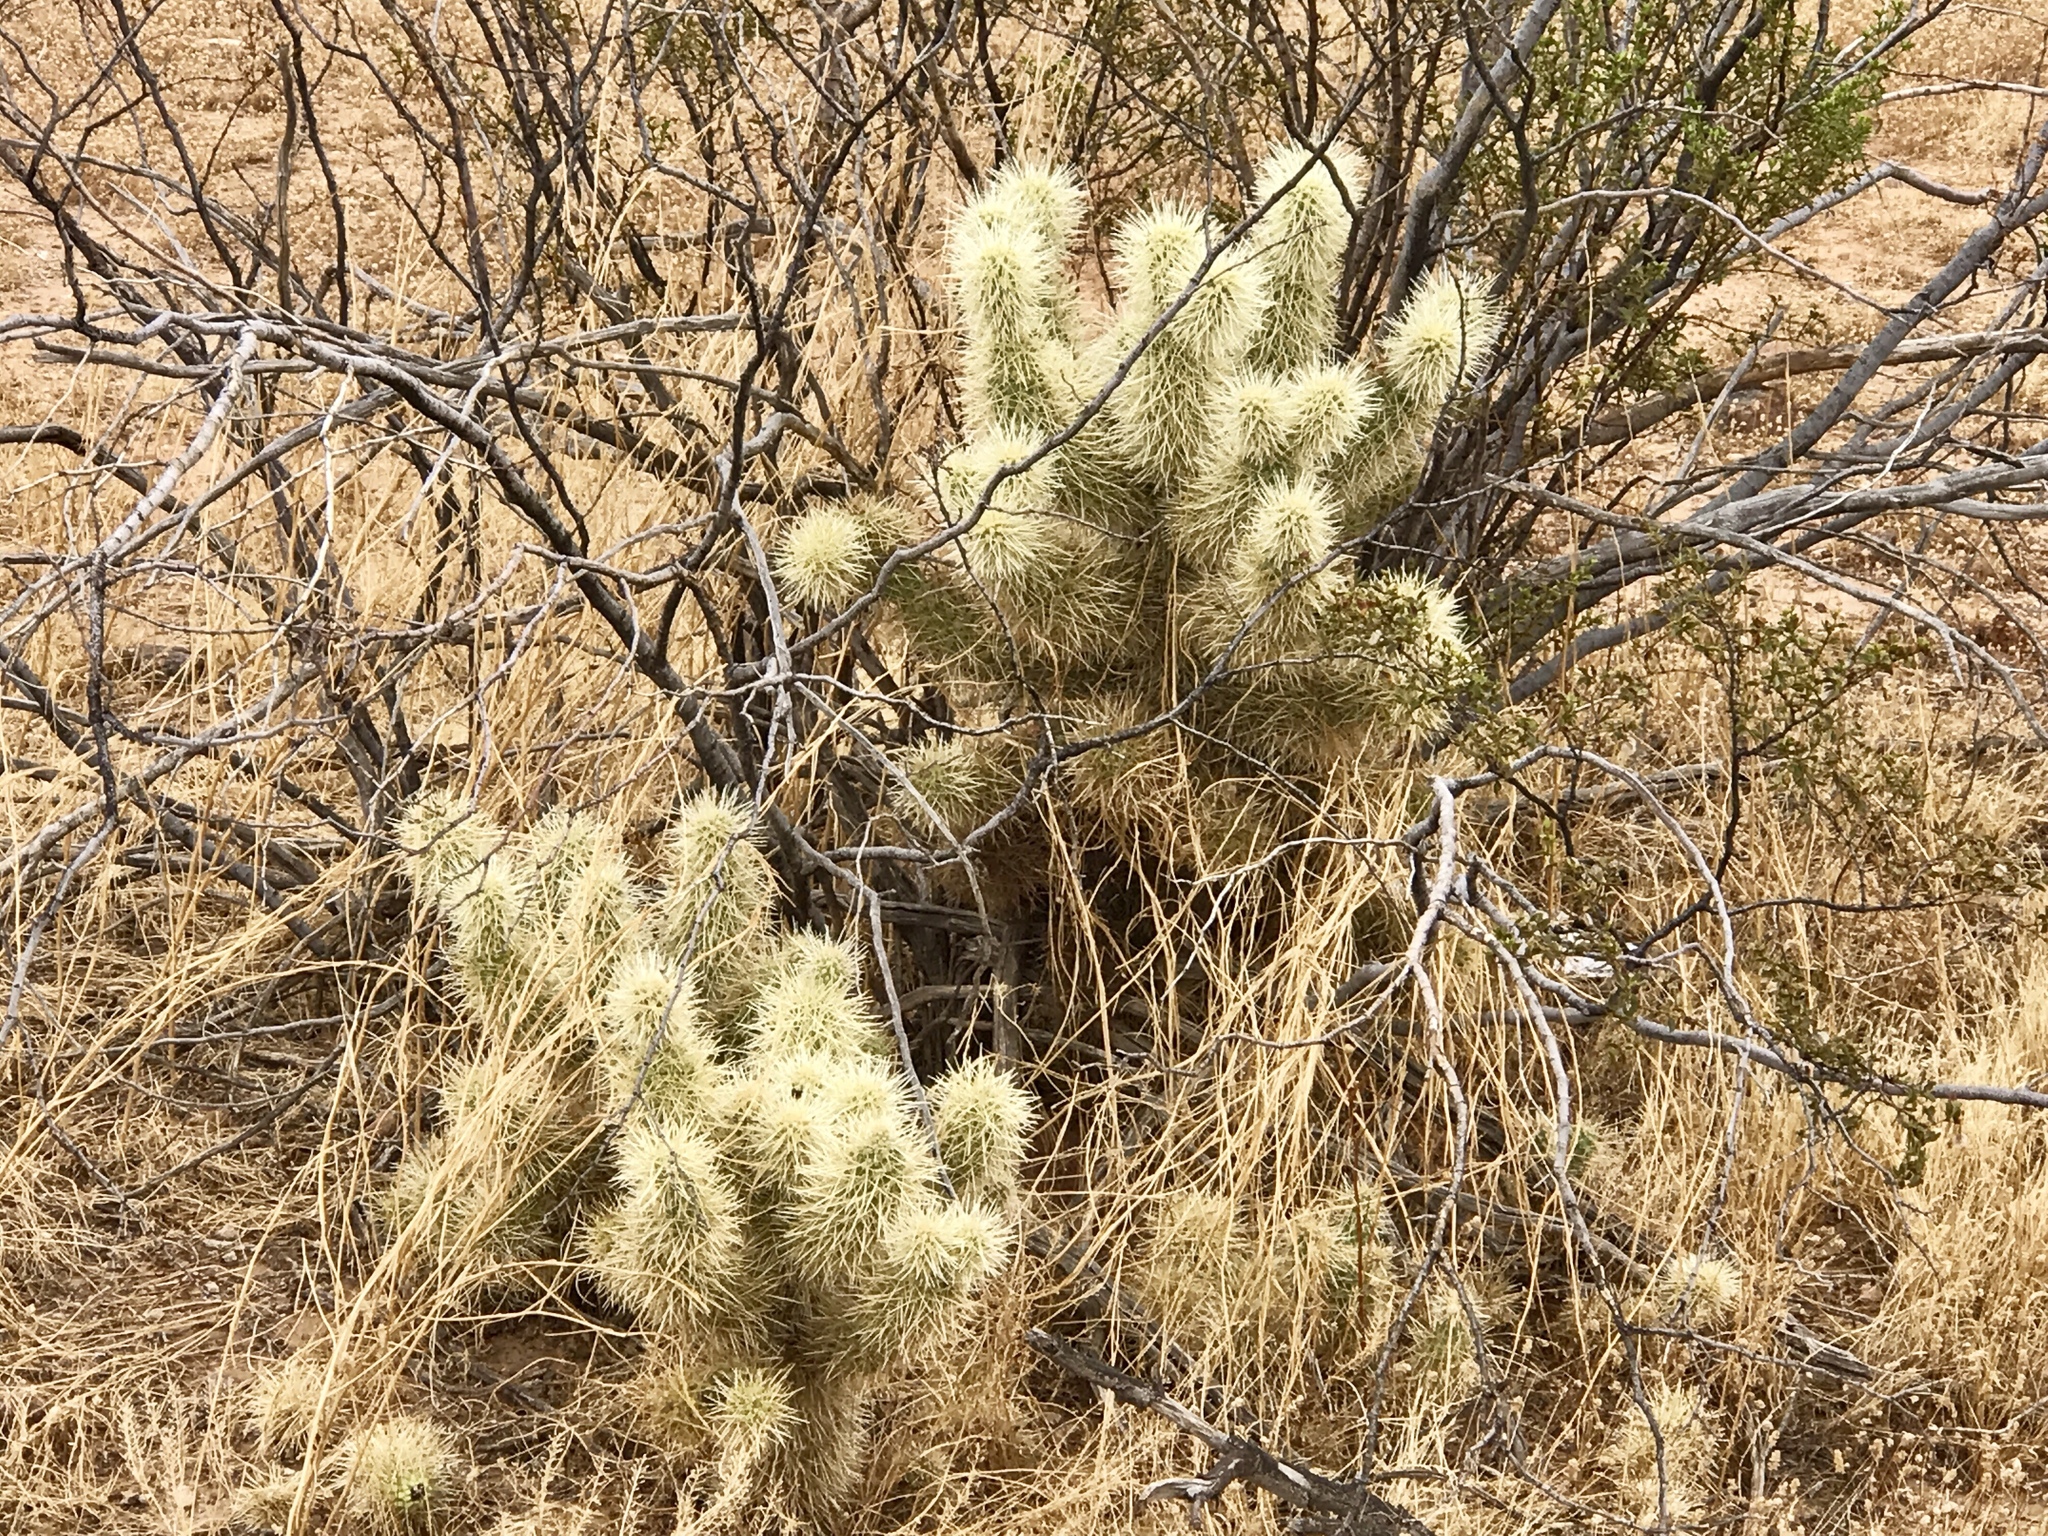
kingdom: Plantae
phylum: Tracheophyta
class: Magnoliopsida
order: Caryophyllales
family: Cactaceae
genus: Cylindropuntia
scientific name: Cylindropuntia fosbergii
